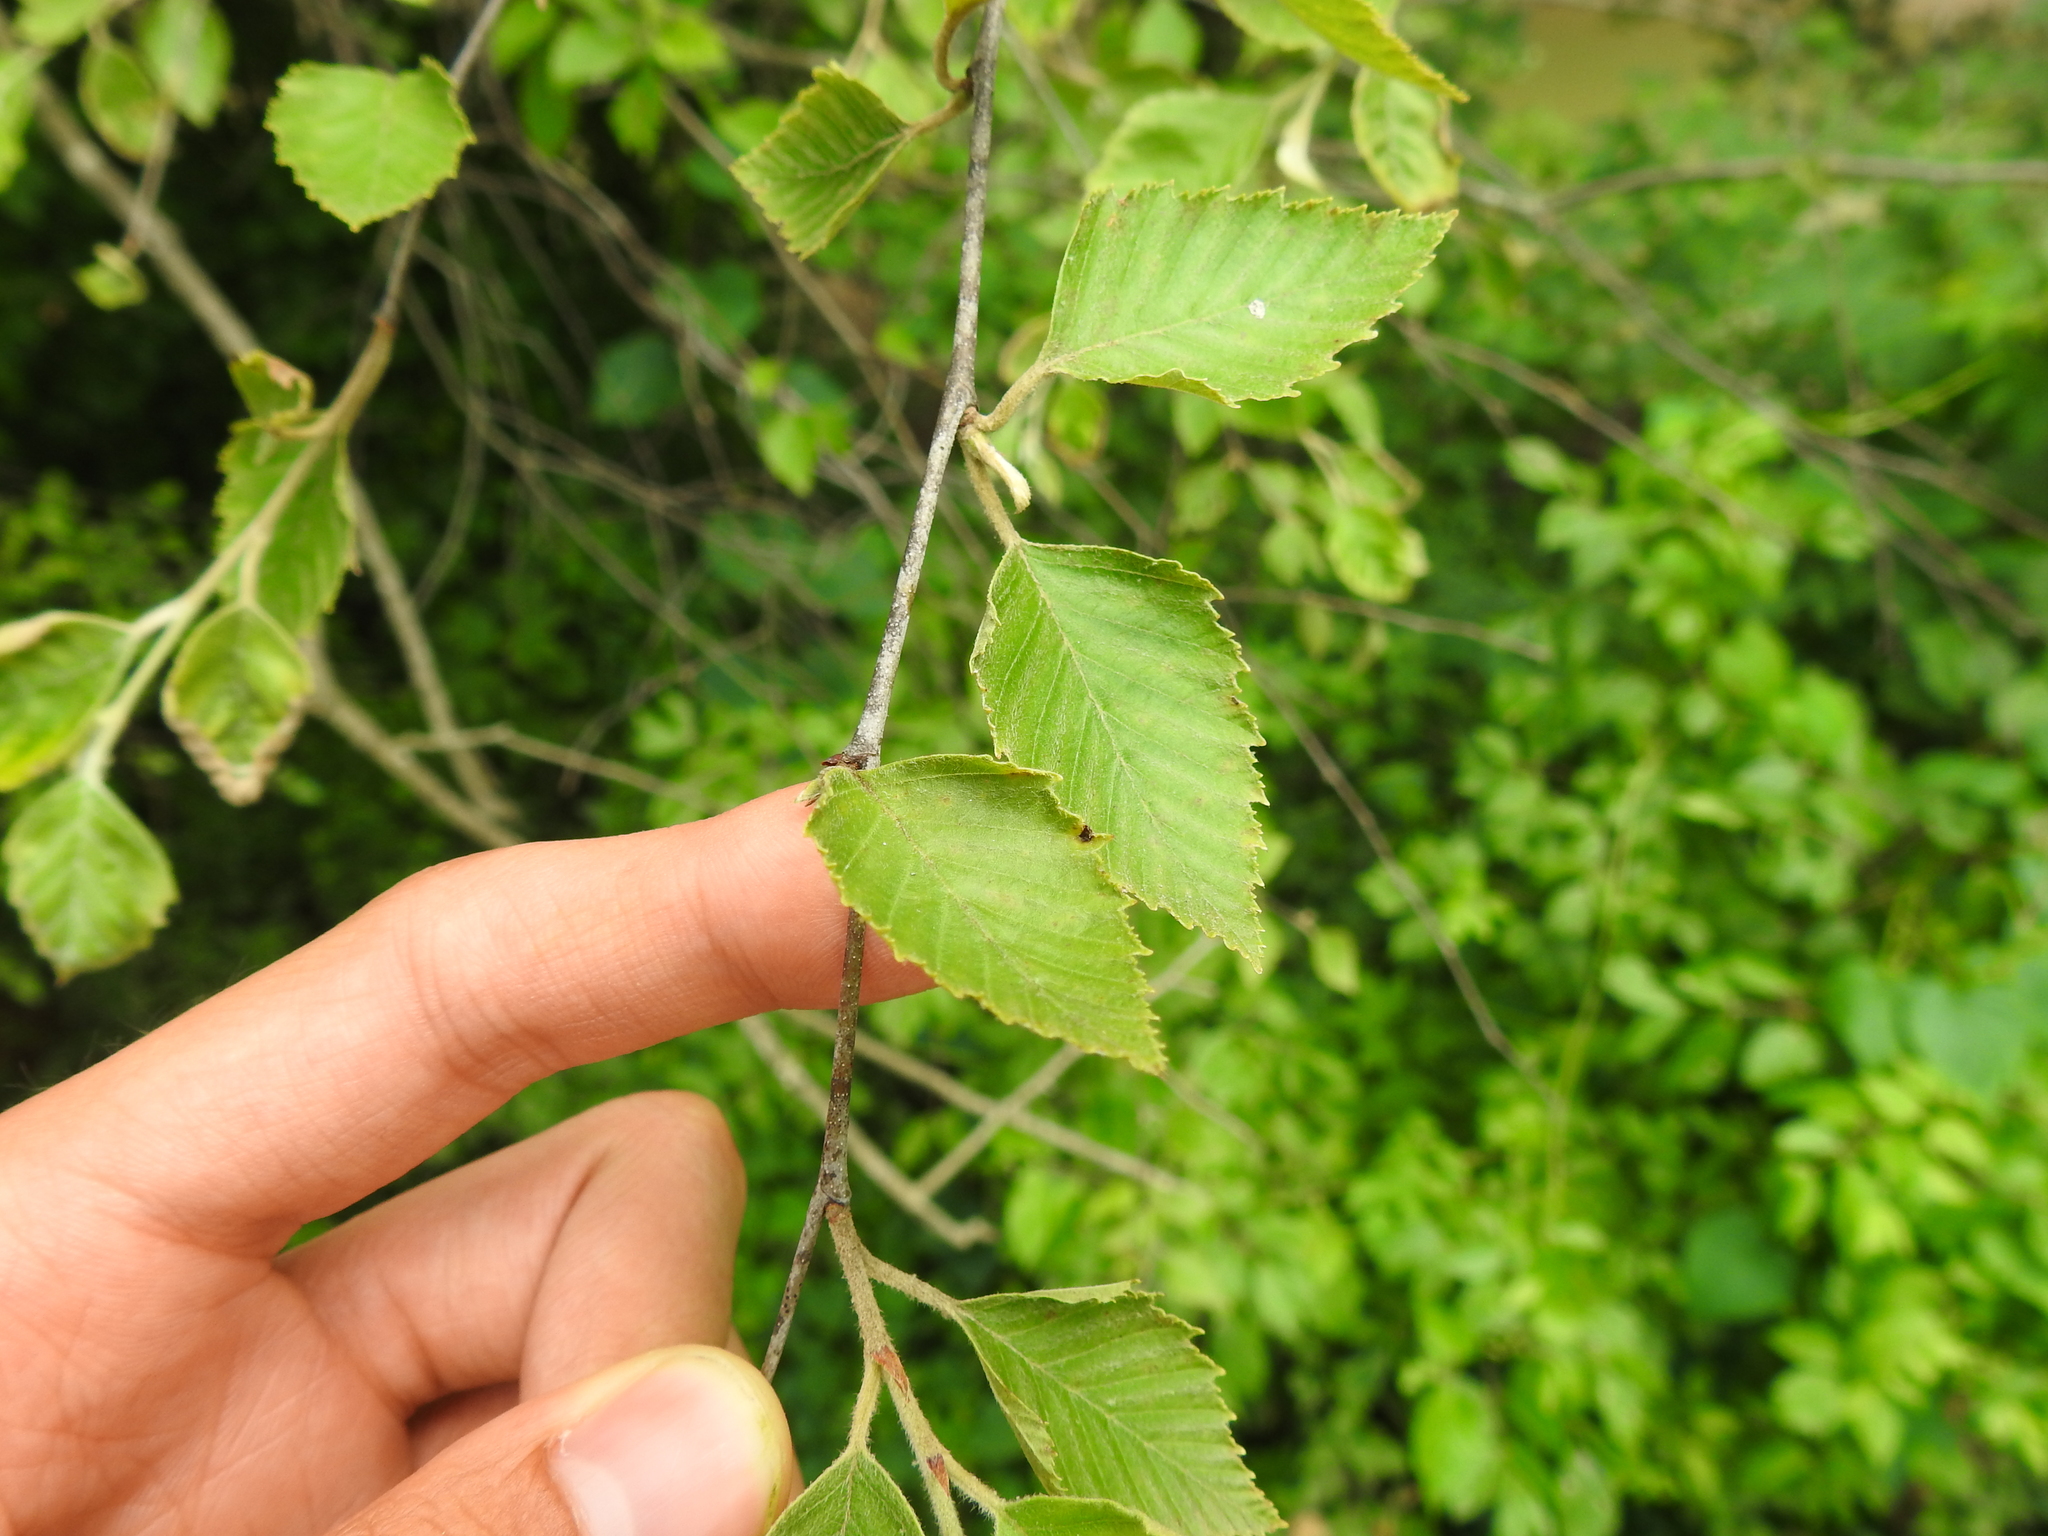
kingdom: Plantae
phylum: Tracheophyta
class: Magnoliopsida
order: Fagales
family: Betulaceae
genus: Betula
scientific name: Betula nigra
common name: Black birch
